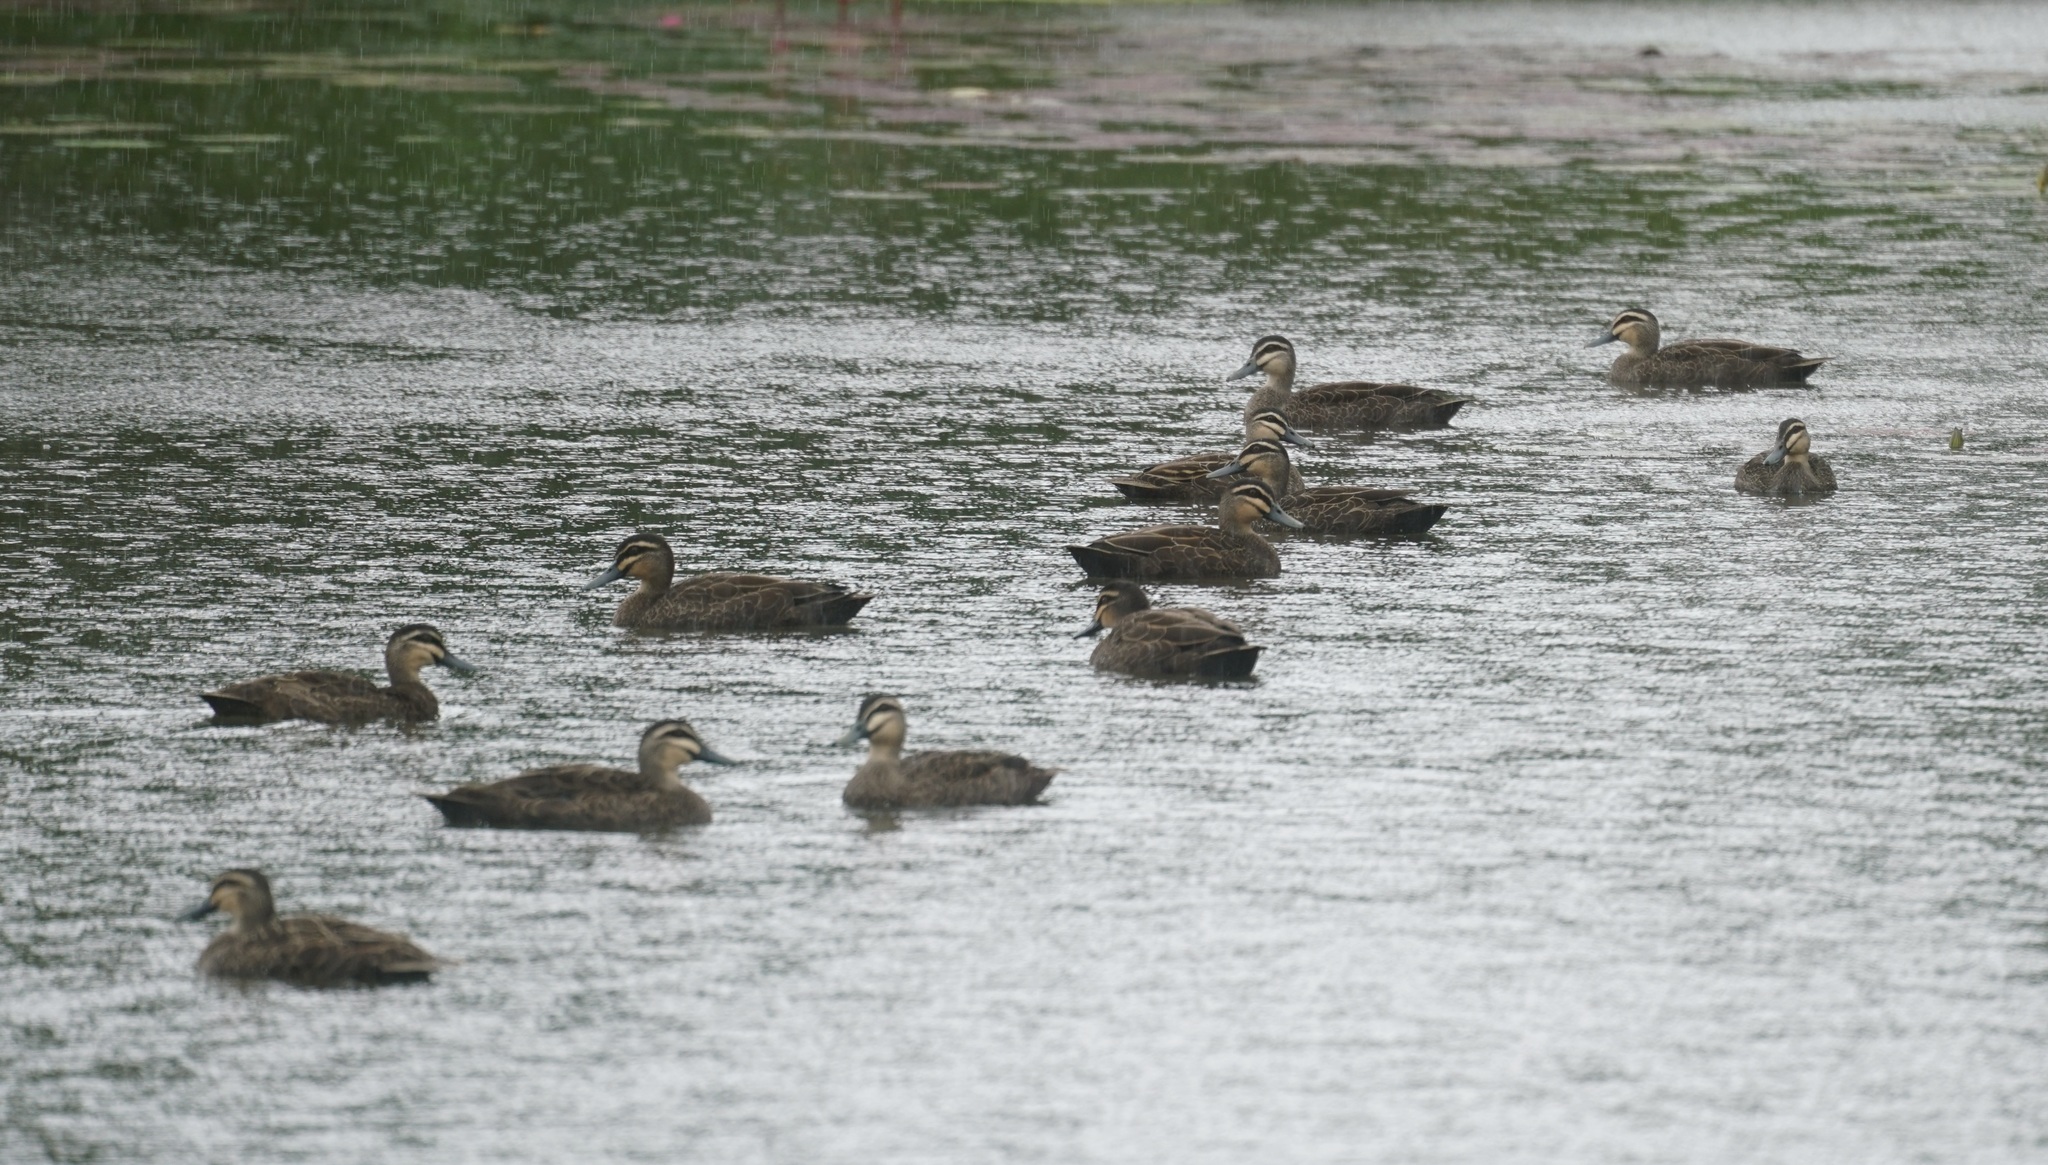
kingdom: Animalia
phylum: Chordata
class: Aves
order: Anseriformes
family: Anatidae
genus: Anas
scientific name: Anas superciliosa
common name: Pacific black duck
